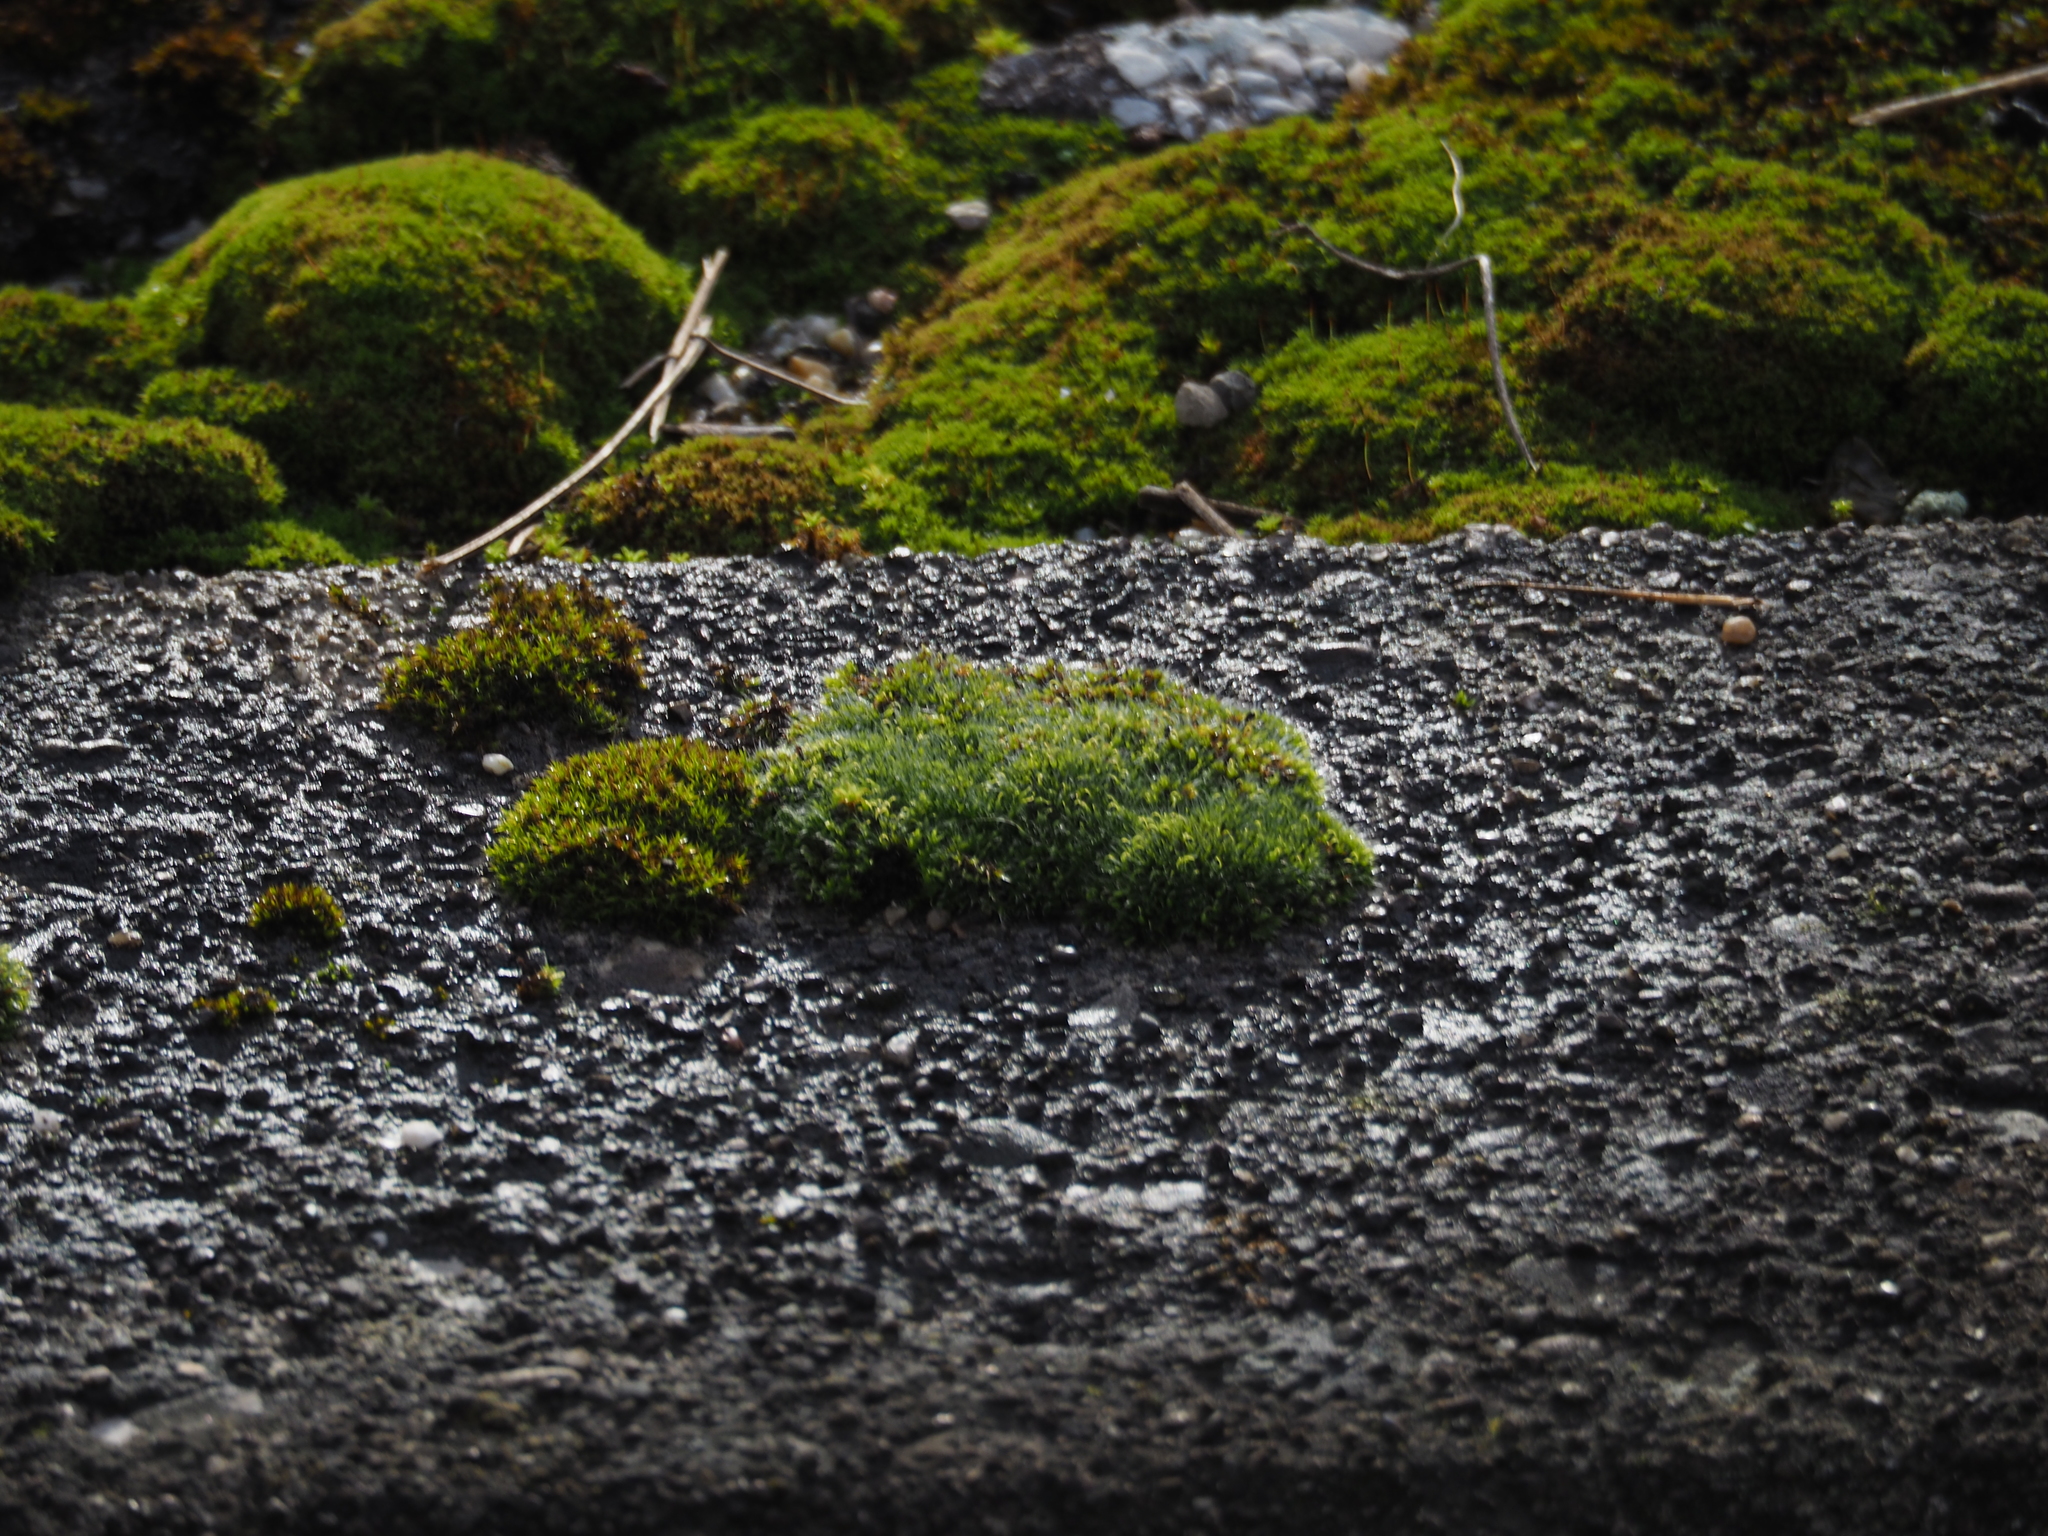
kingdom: Plantae
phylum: Bryophyta
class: Bryopsida
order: Grimmiales
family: Grimmiaceae
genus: Grimmia
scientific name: Grimmia pulvinata
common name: Grey-cushioned grimmia
